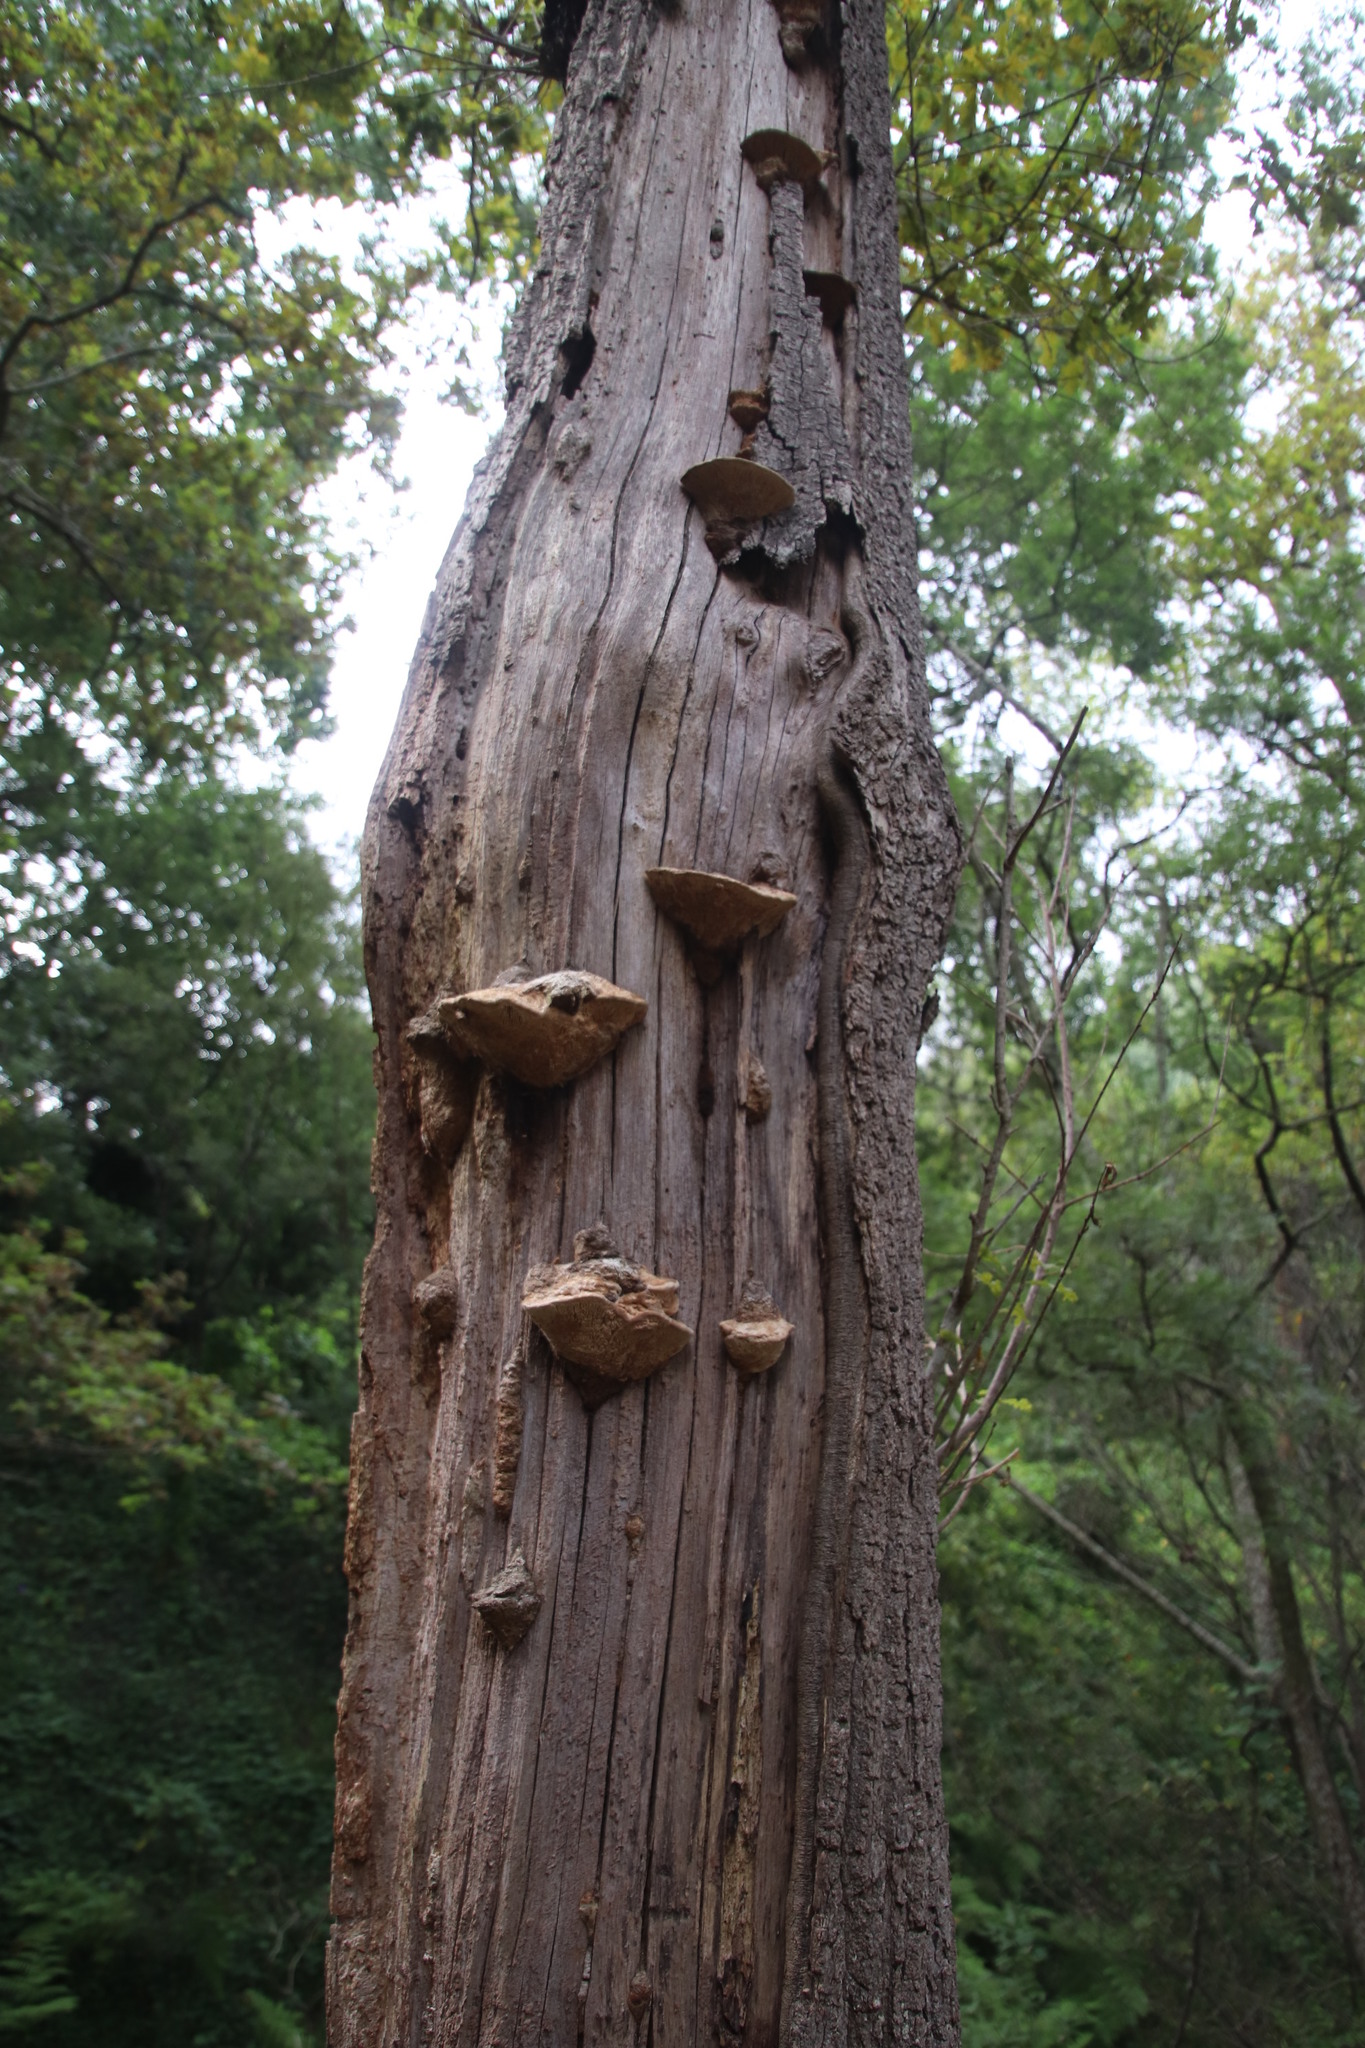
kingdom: Fungi
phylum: Basidiomycota
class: Agaricomycetes
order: Polyporales
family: Fomitopsidaceae
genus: Fomitopsis
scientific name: Fomitopsis
